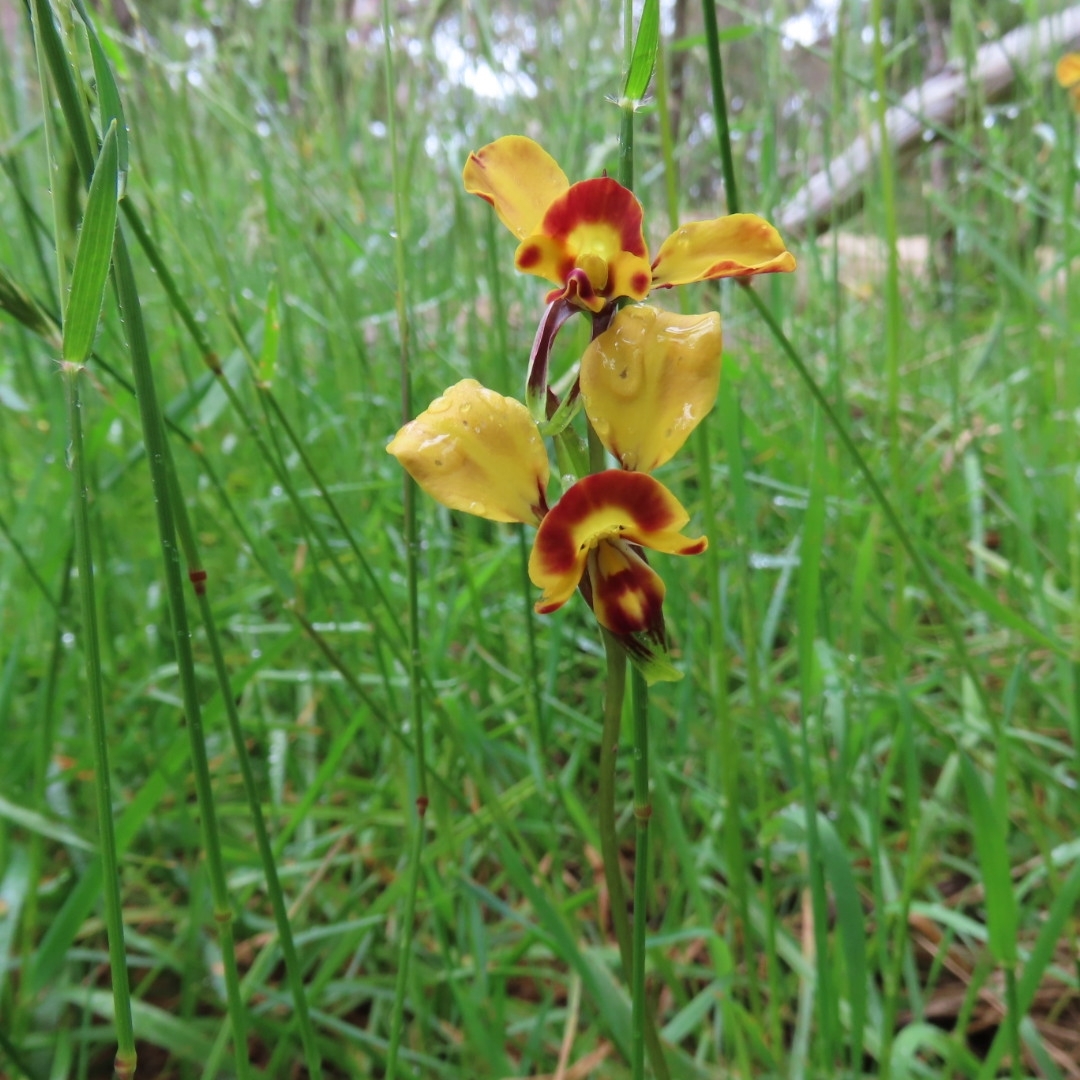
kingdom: Plantae
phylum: Tracheophyta
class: Liliopsida
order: Asparagales
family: Orchidaceae
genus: Diuris
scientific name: Diuris orientis
